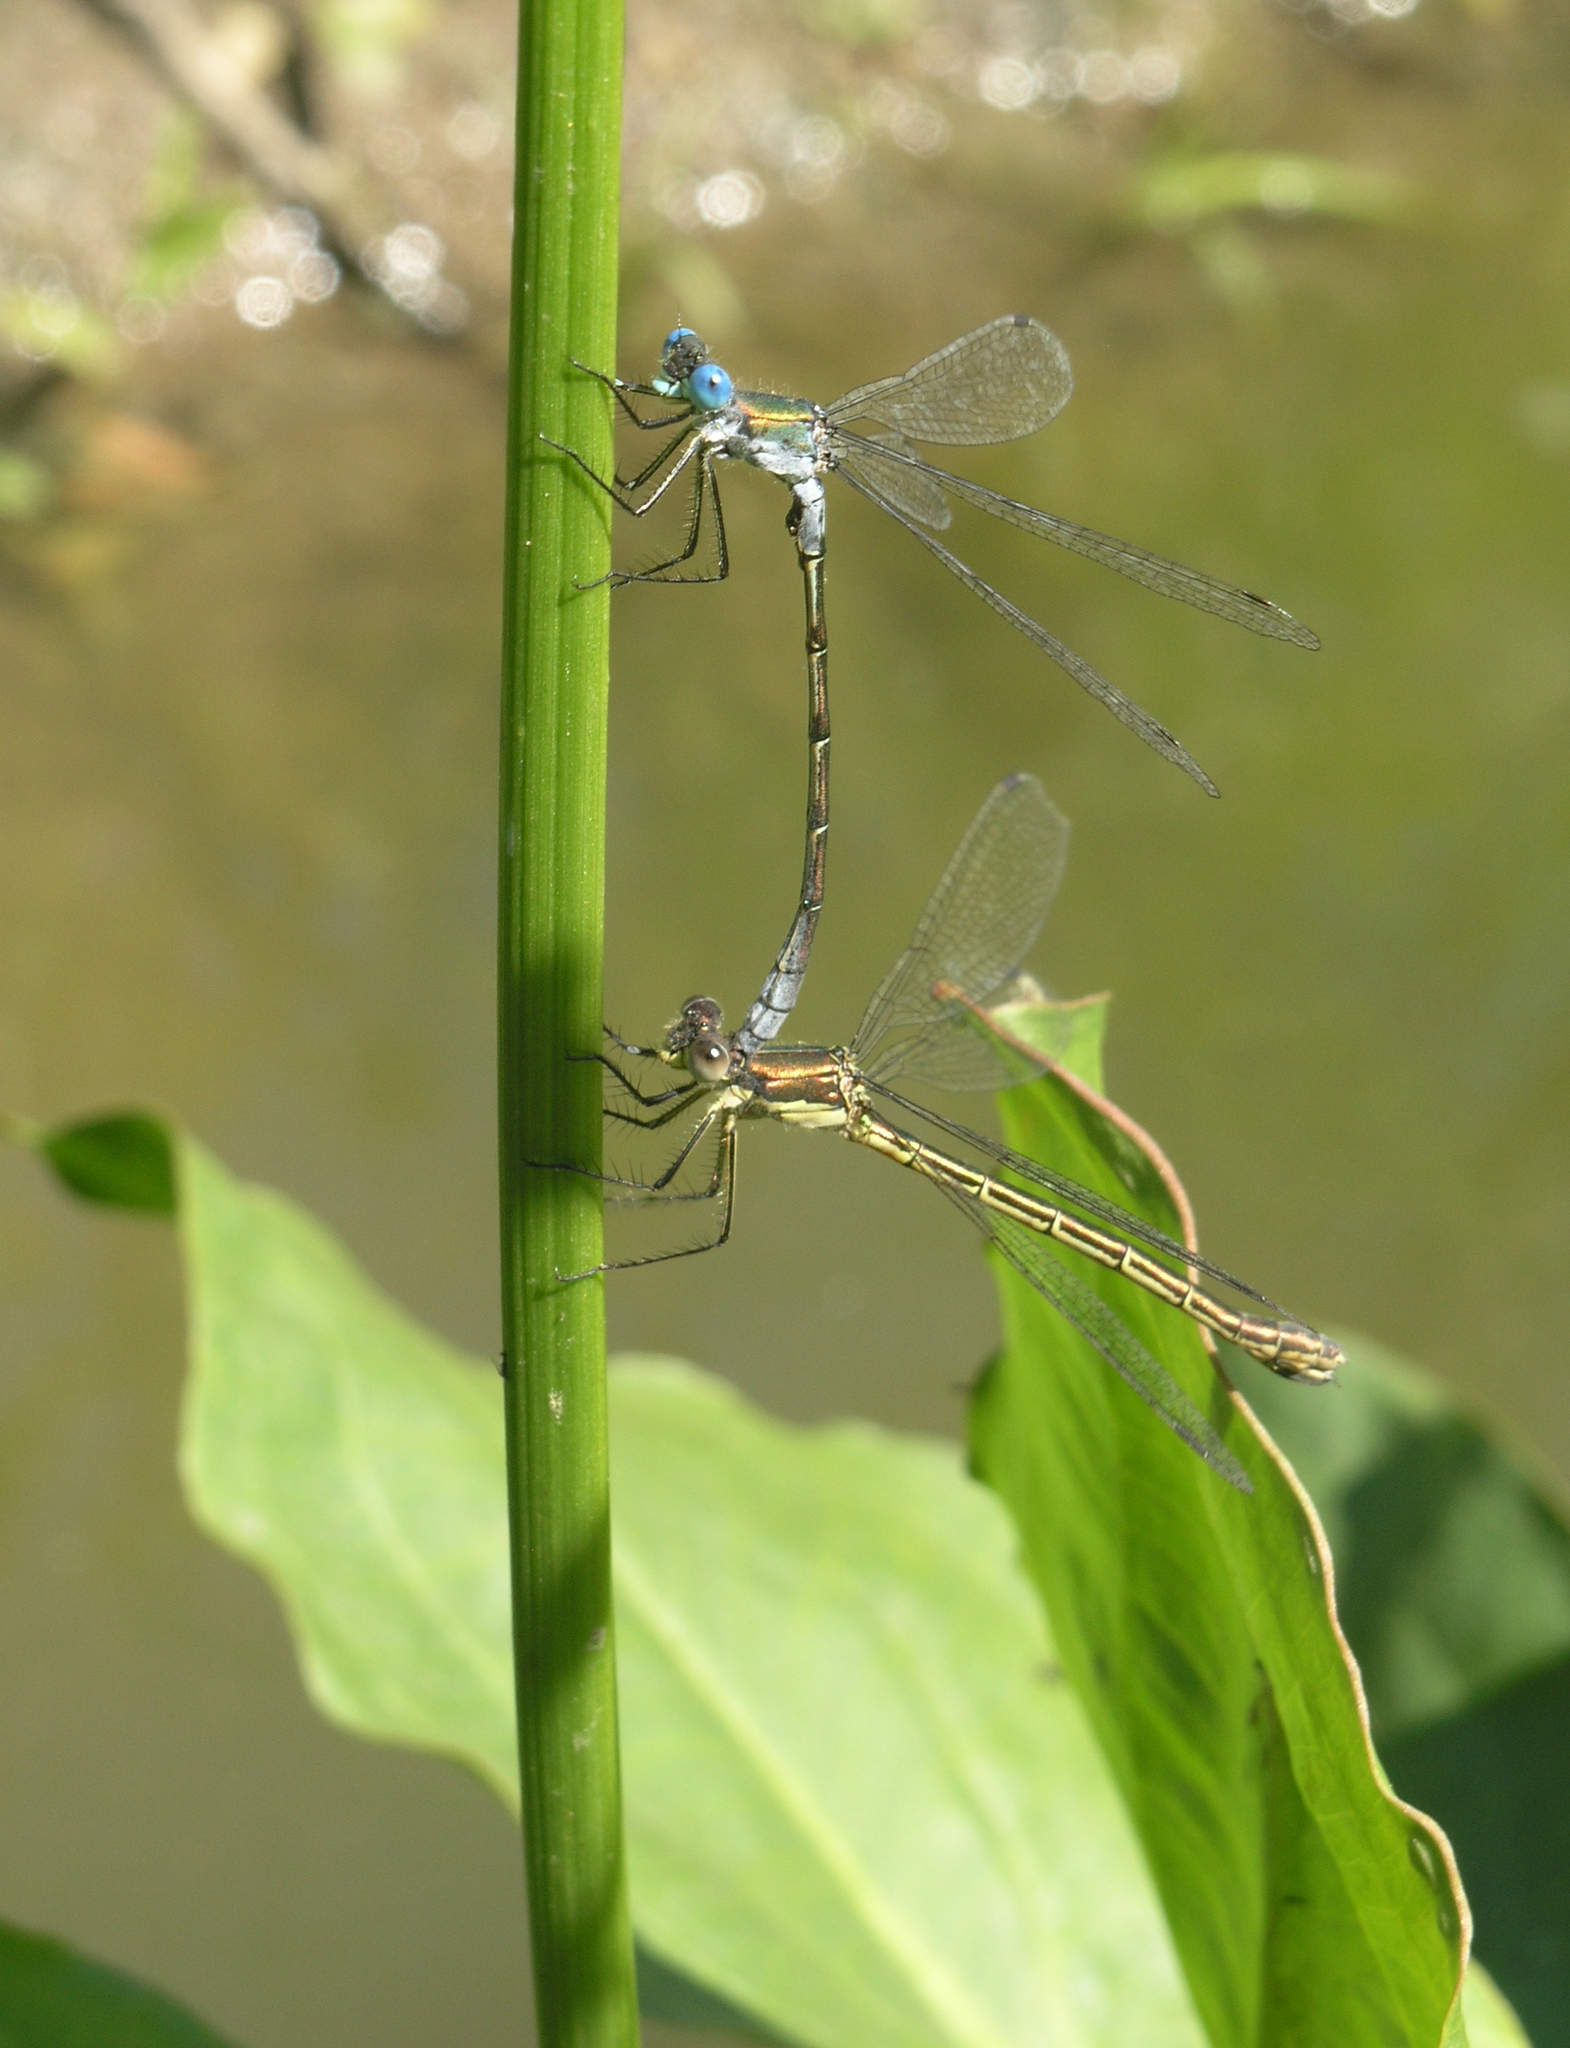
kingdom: Animalia
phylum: Arthropoda
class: Insecta
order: Odonata
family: Lestidae
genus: Lestes
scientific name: Lestes dryas
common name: Scarce emerald damselfly
